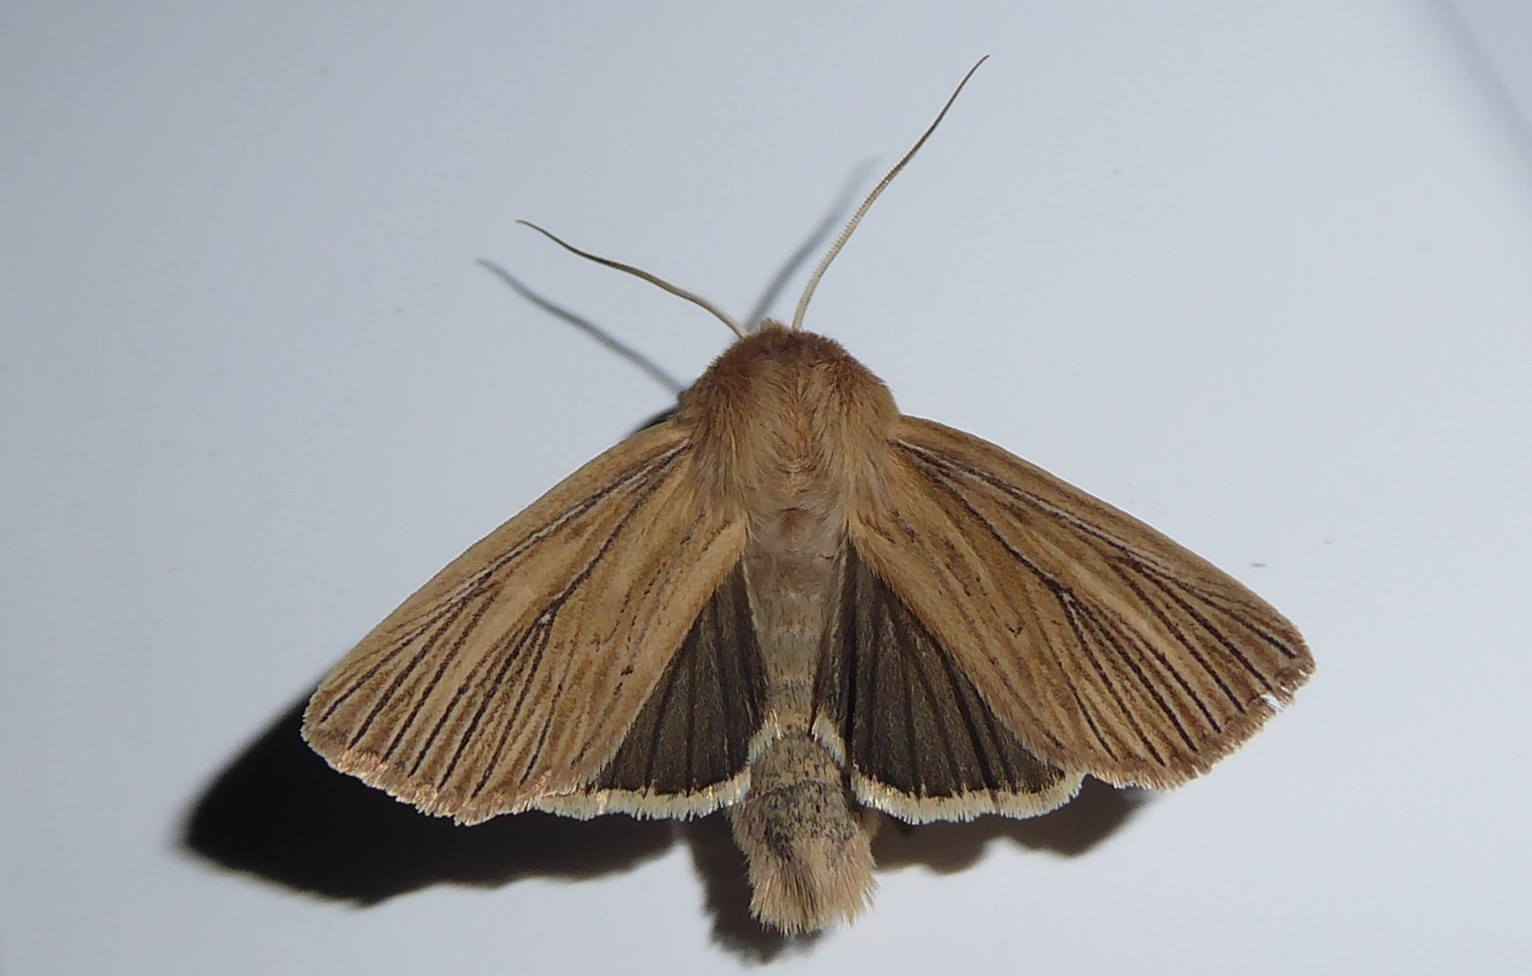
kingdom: Animalia
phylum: Arthropoda
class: Insecta
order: Lepidoptera
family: Noctuidae
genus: Ichneutica
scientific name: Ichneutica arotis
